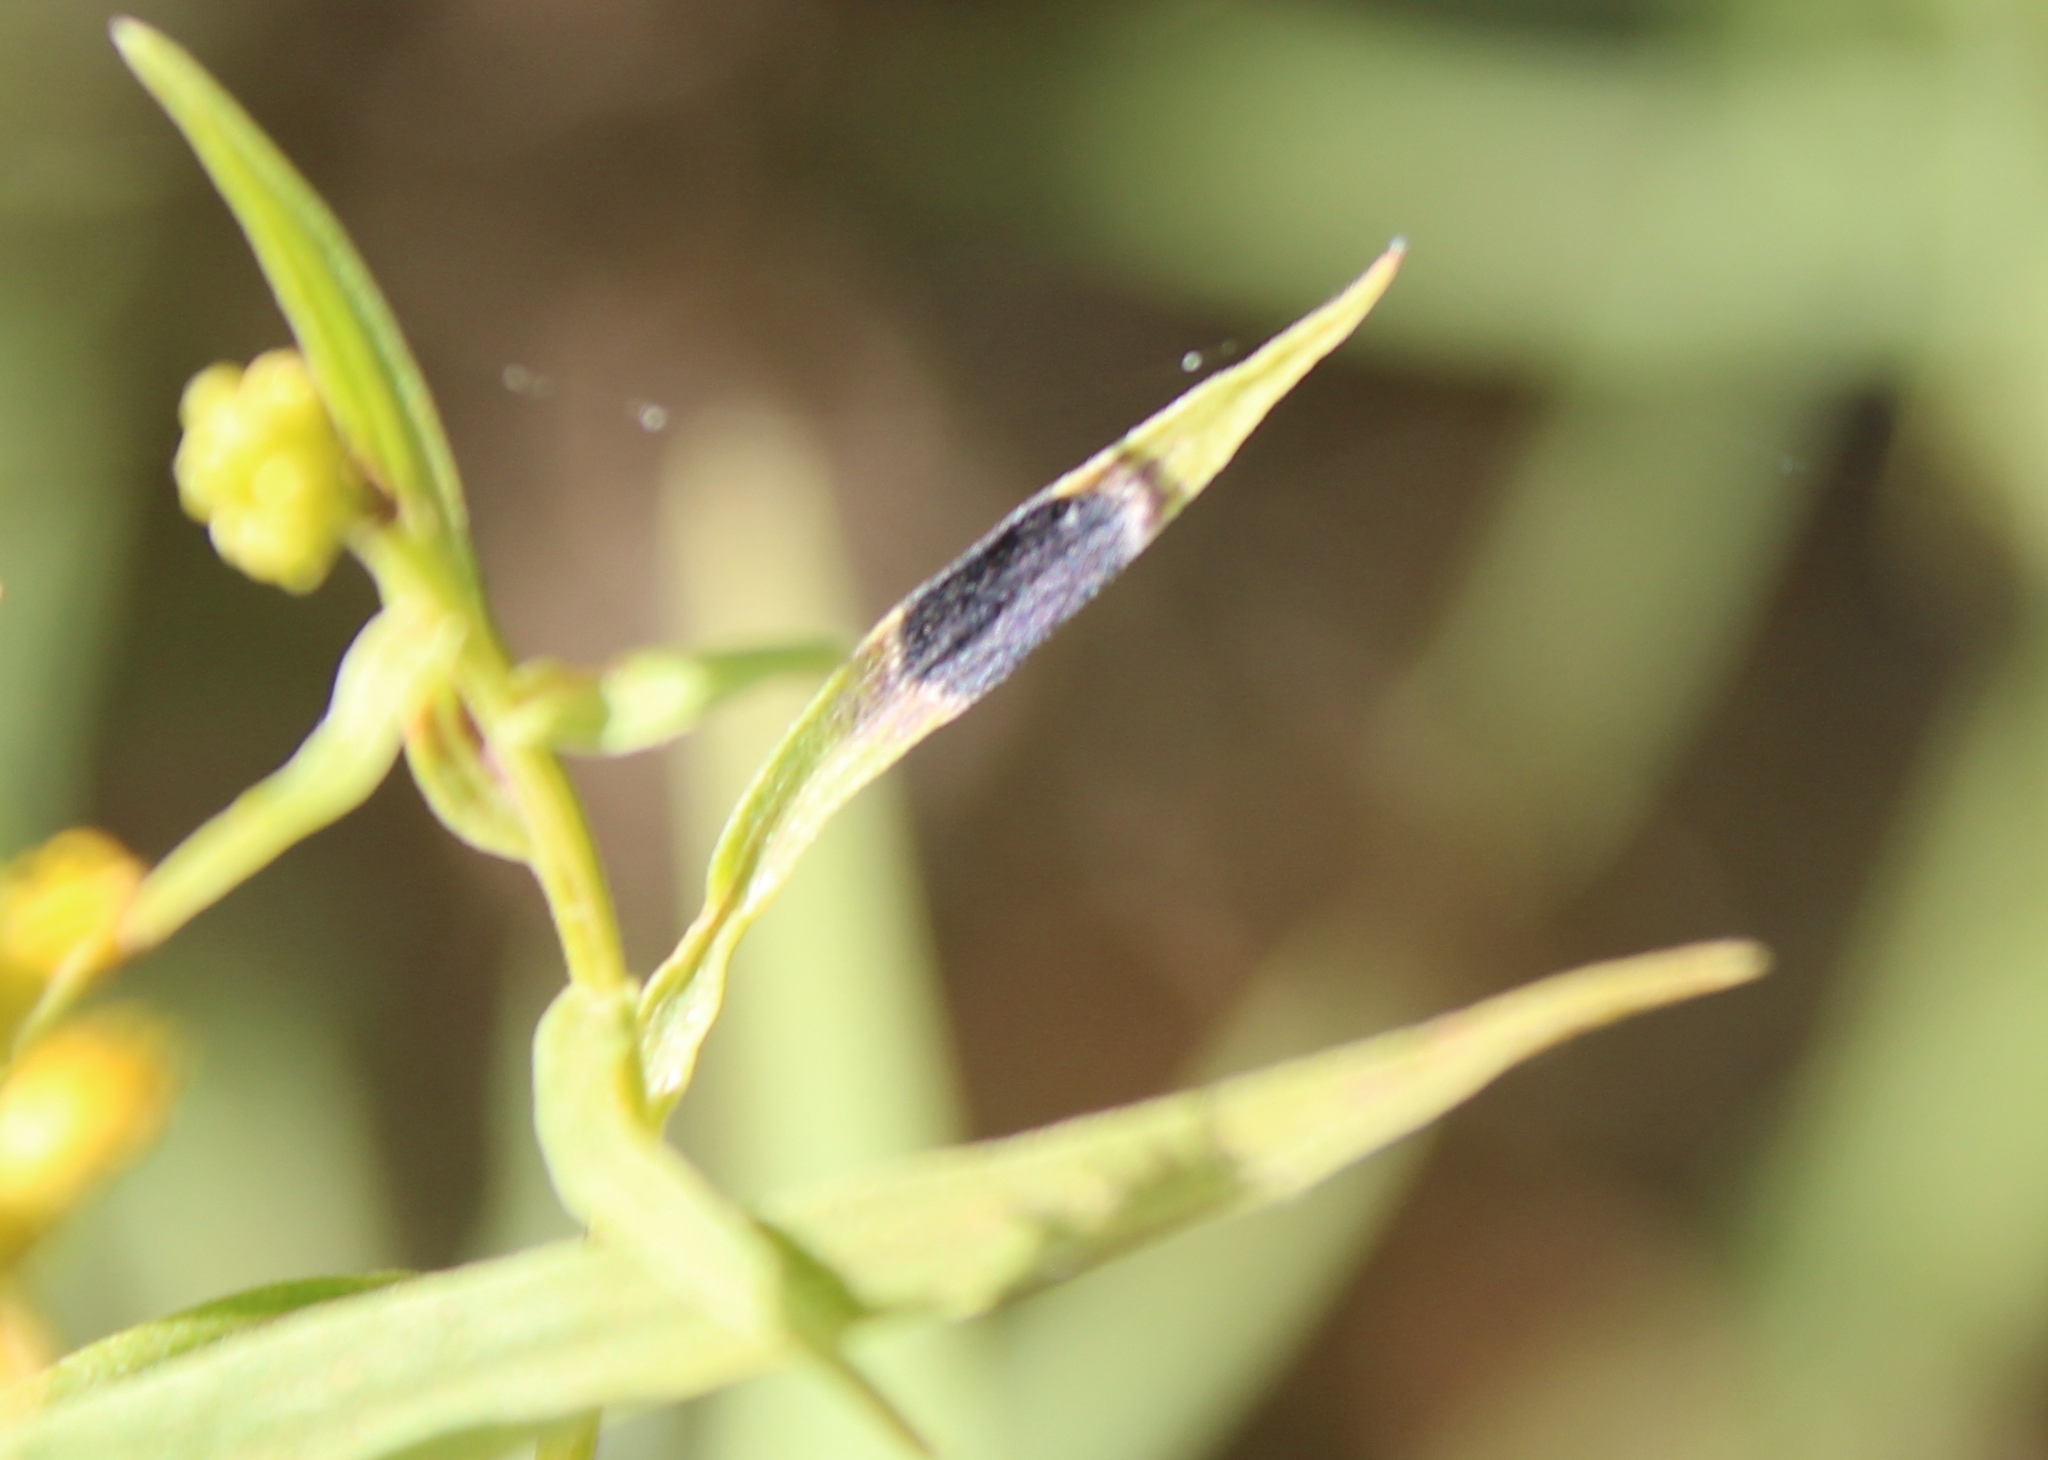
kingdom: Animalia
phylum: Arthropoda
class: Insecta
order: Diptera
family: Cecidomyiidae
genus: Asteromyia
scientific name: Asteromyia euthamiae
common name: Euthamia leaf gall midge
